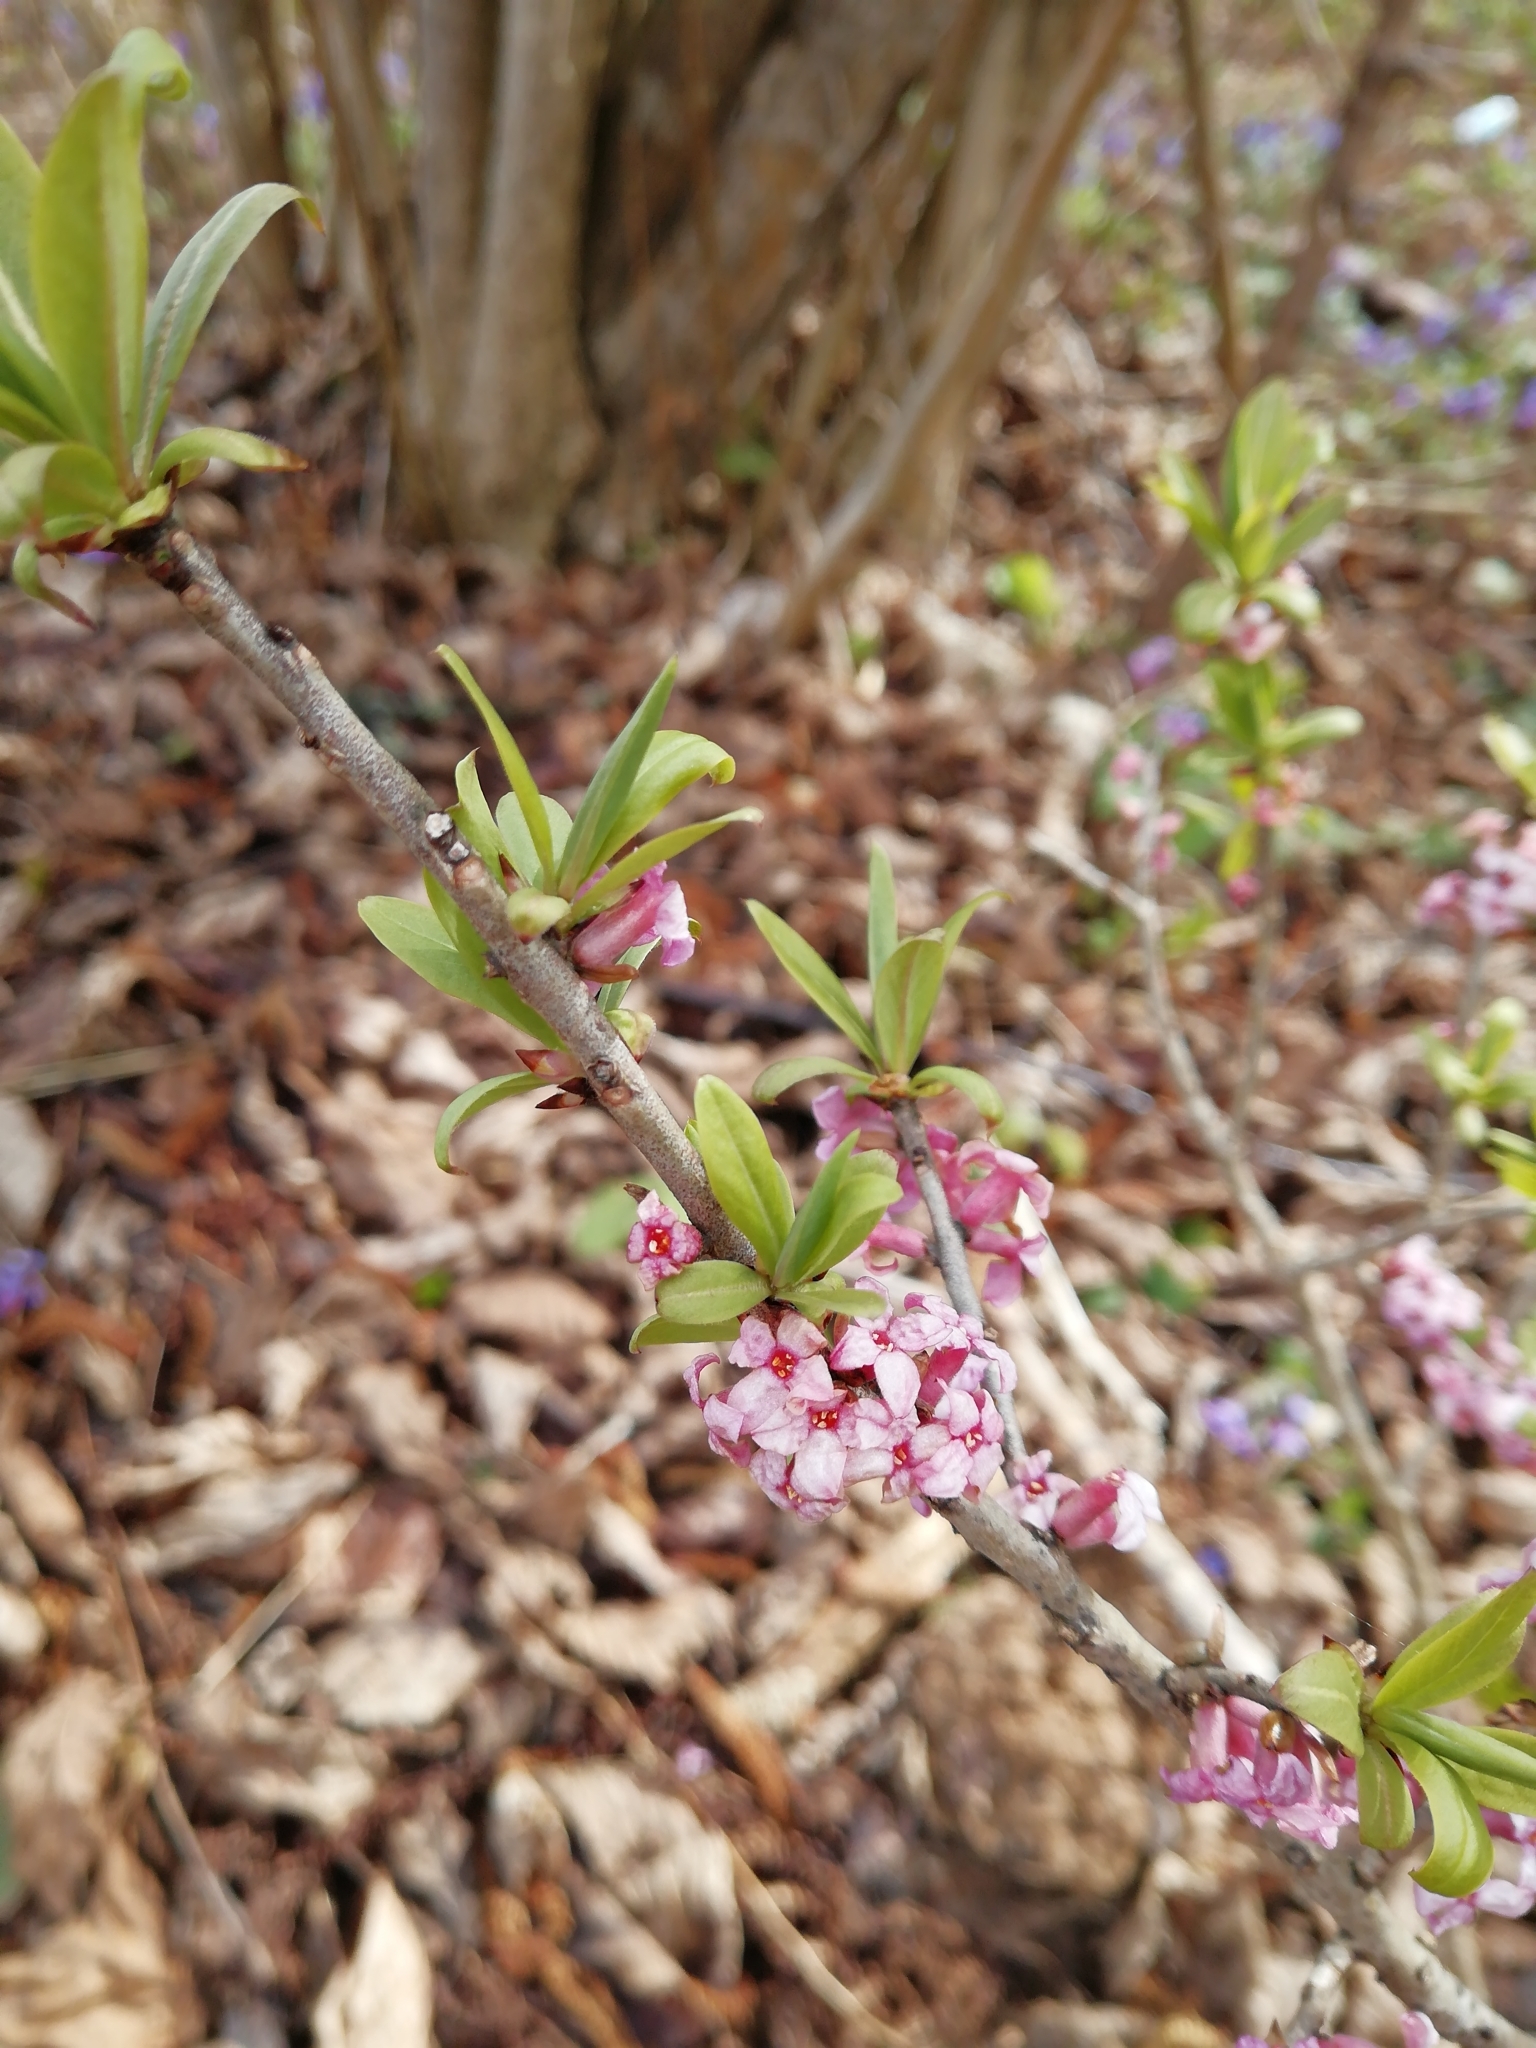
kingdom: Plantae
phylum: Tracheophyta
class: Magnoliopsida
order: Malvales
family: Thymelaeaceae
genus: Daphne
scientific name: Daphne mezereum
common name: Mezereon
